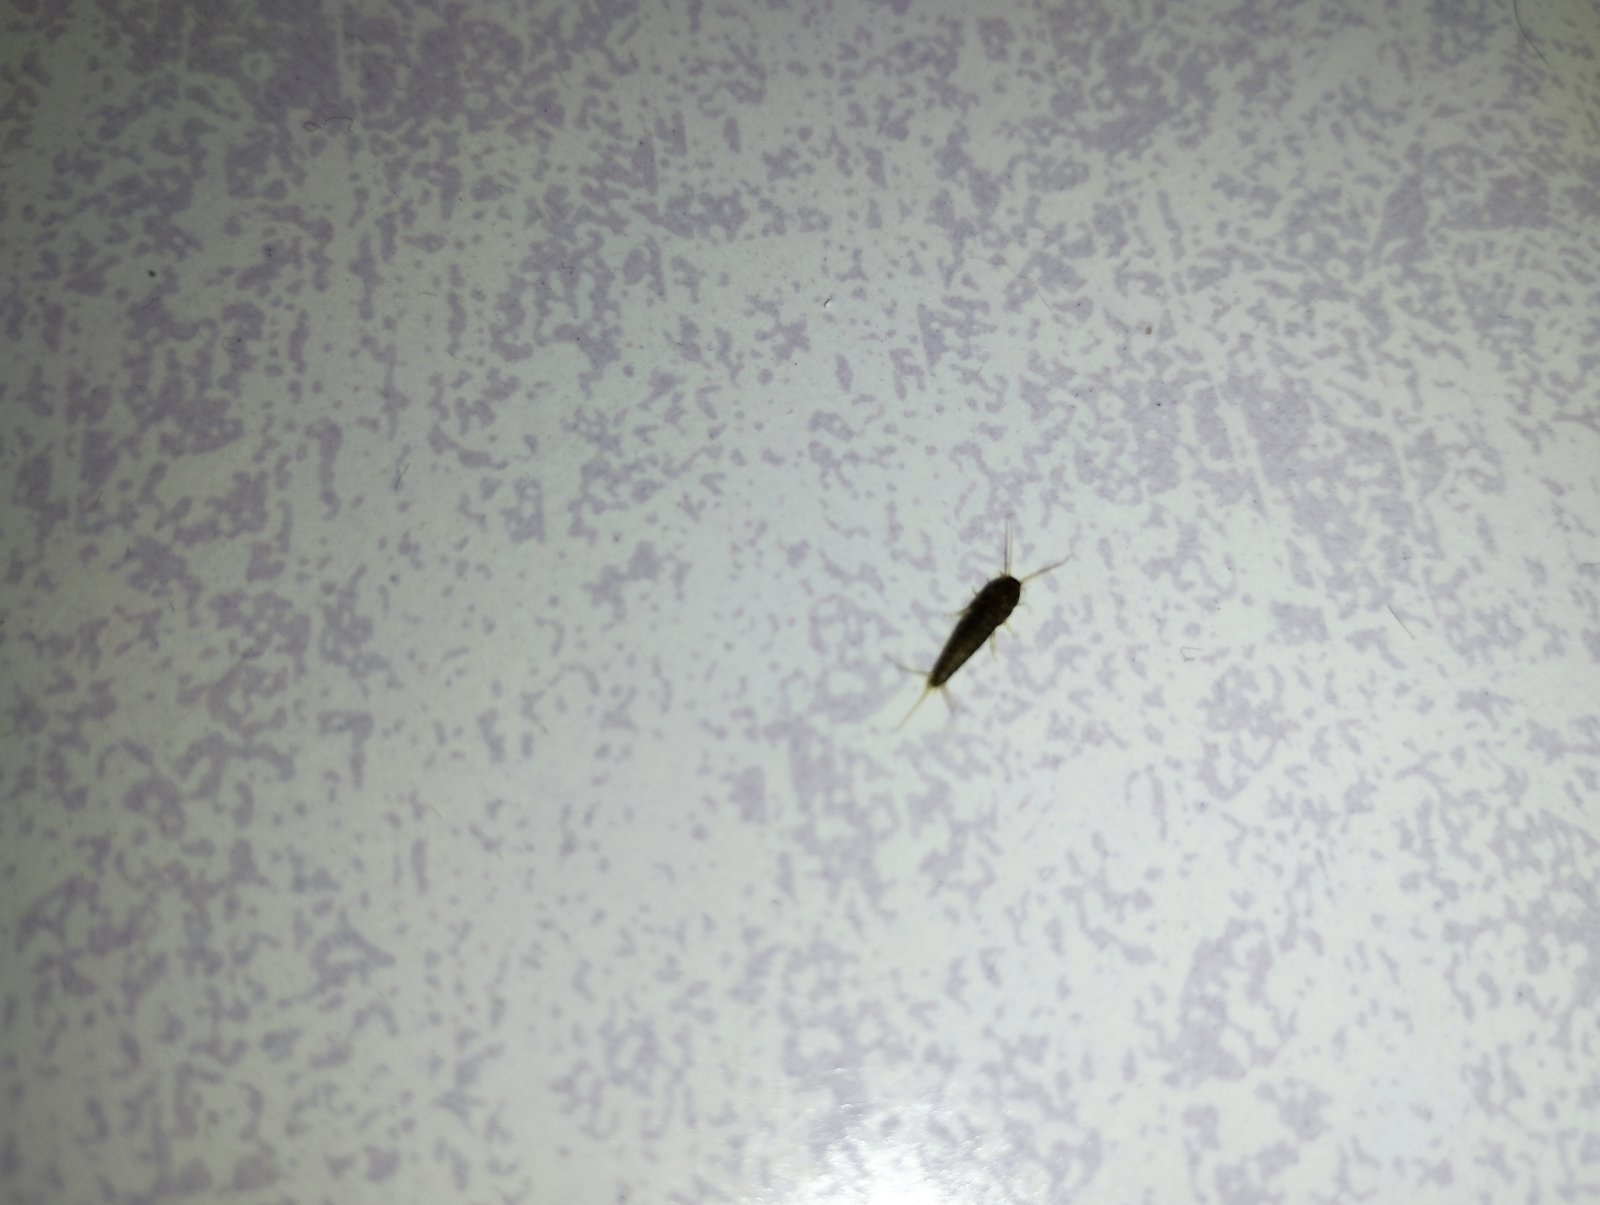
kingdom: Animalia
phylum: Arthropoda
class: Insecta
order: Zygentoma
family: Lepismatidae
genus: Lepisma
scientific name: Lepisma saccharinum
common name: Silverfish
